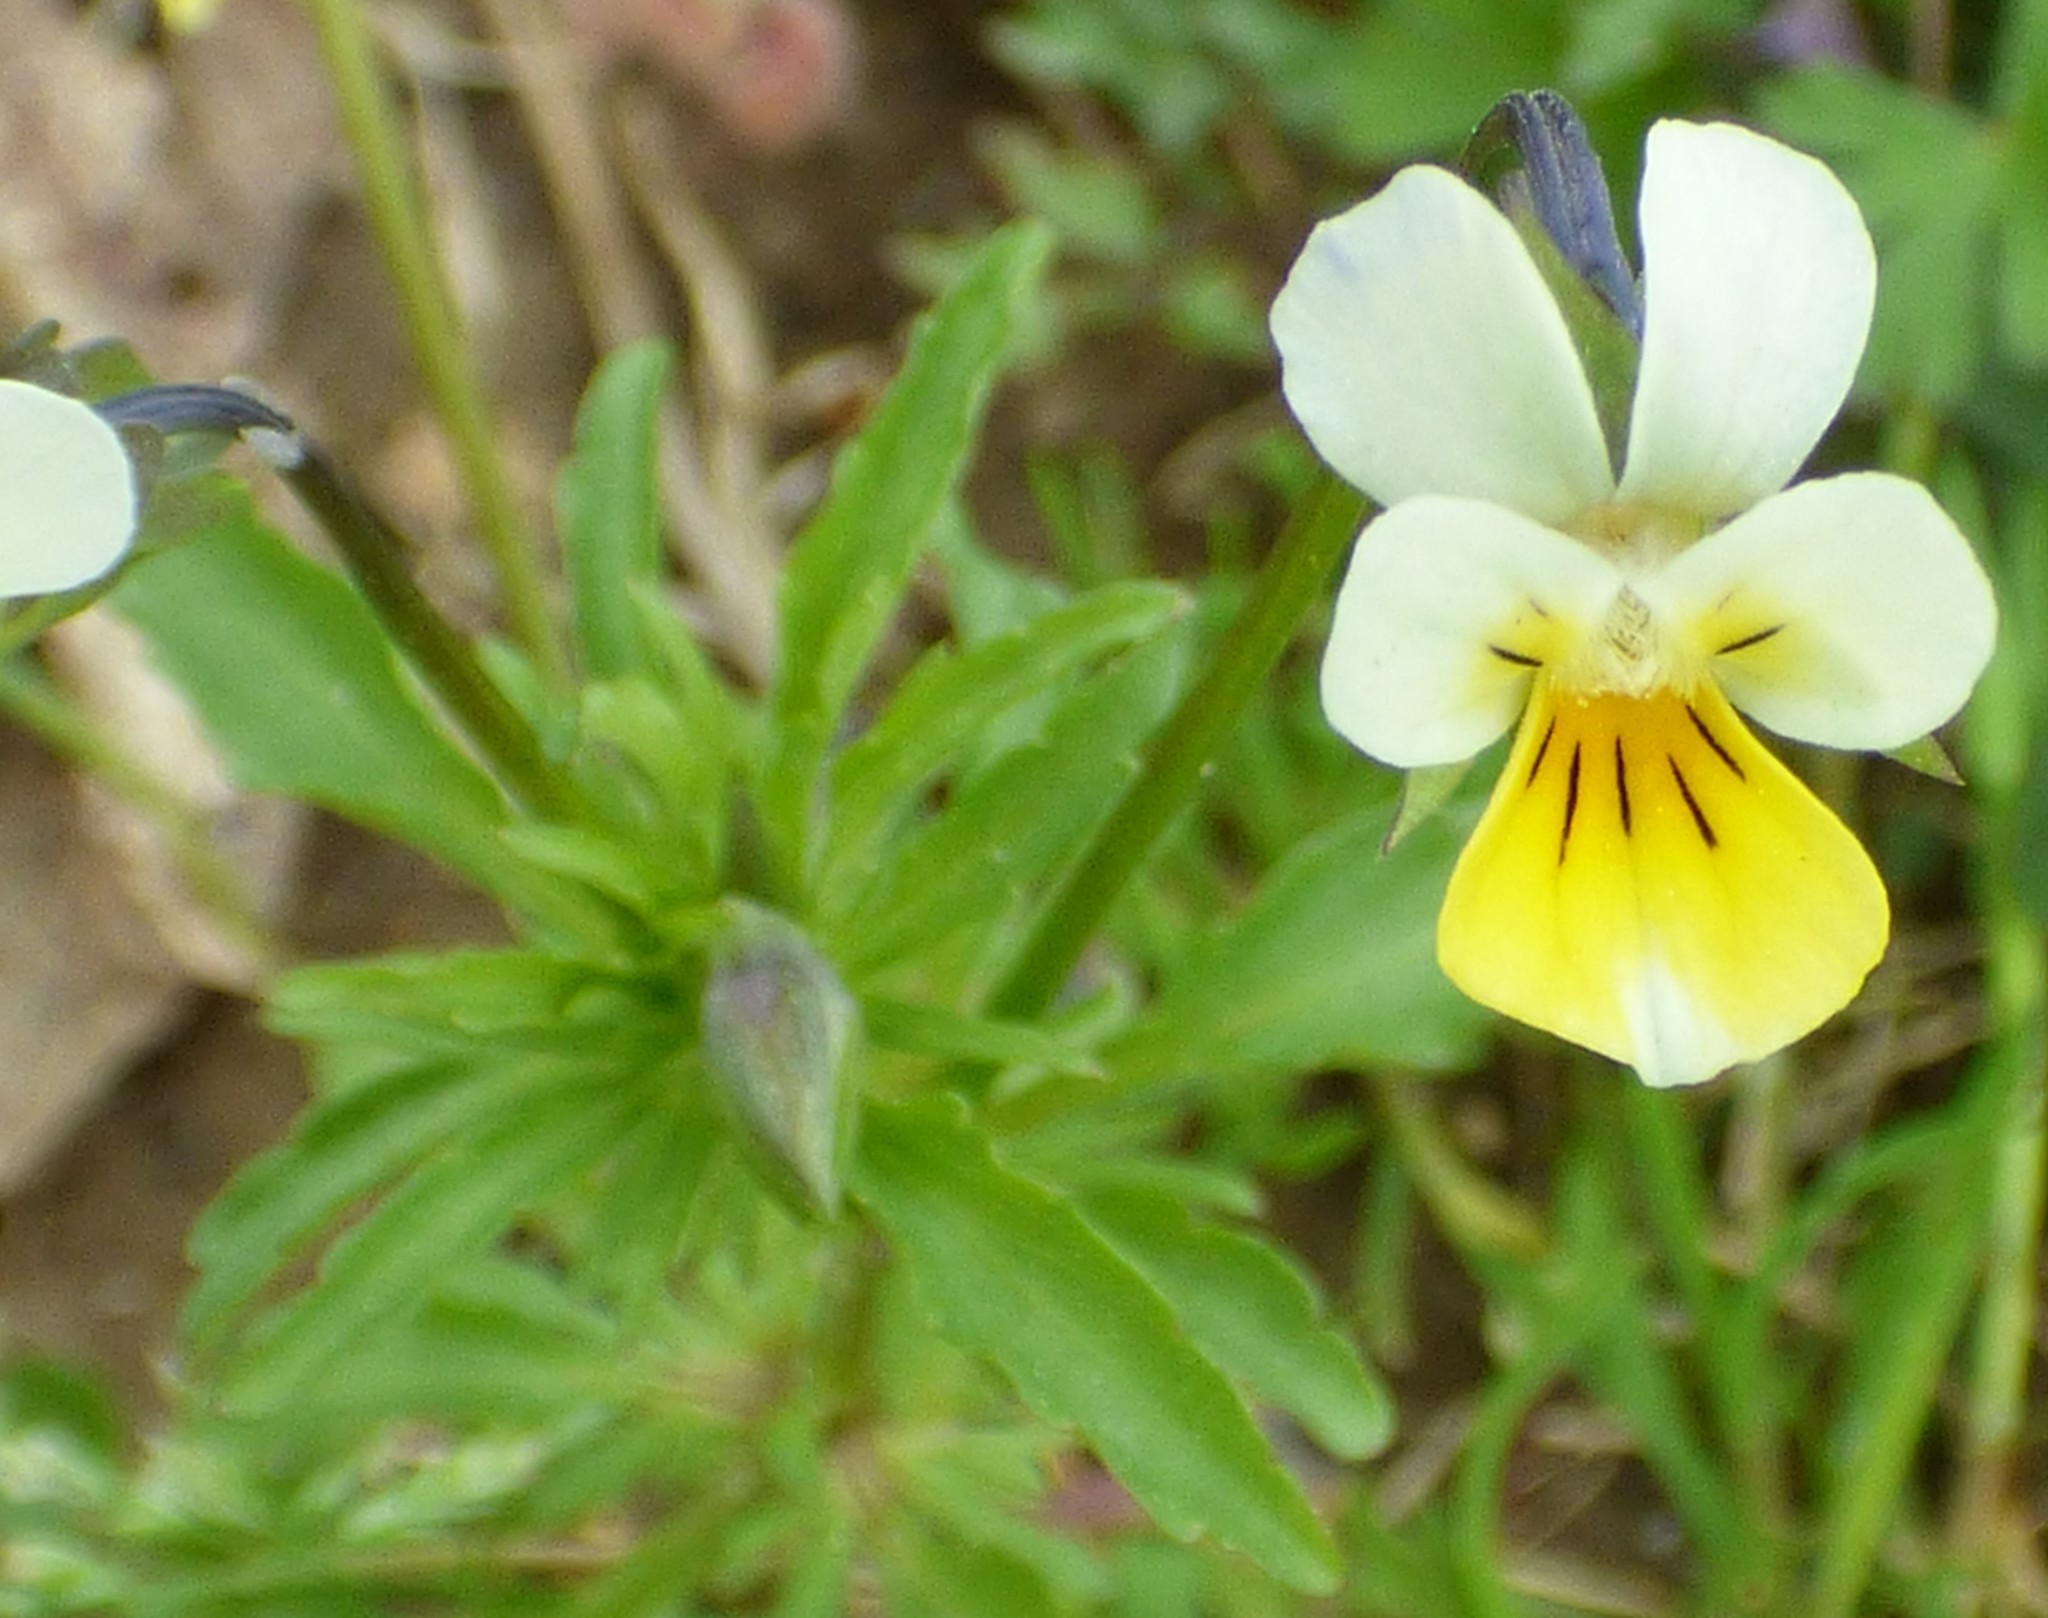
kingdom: Plantae
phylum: Tracheophyta
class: Magnoliopsida
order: Malpighiales
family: Violaceae
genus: Viola
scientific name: Viola arvensis
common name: Field pansy
